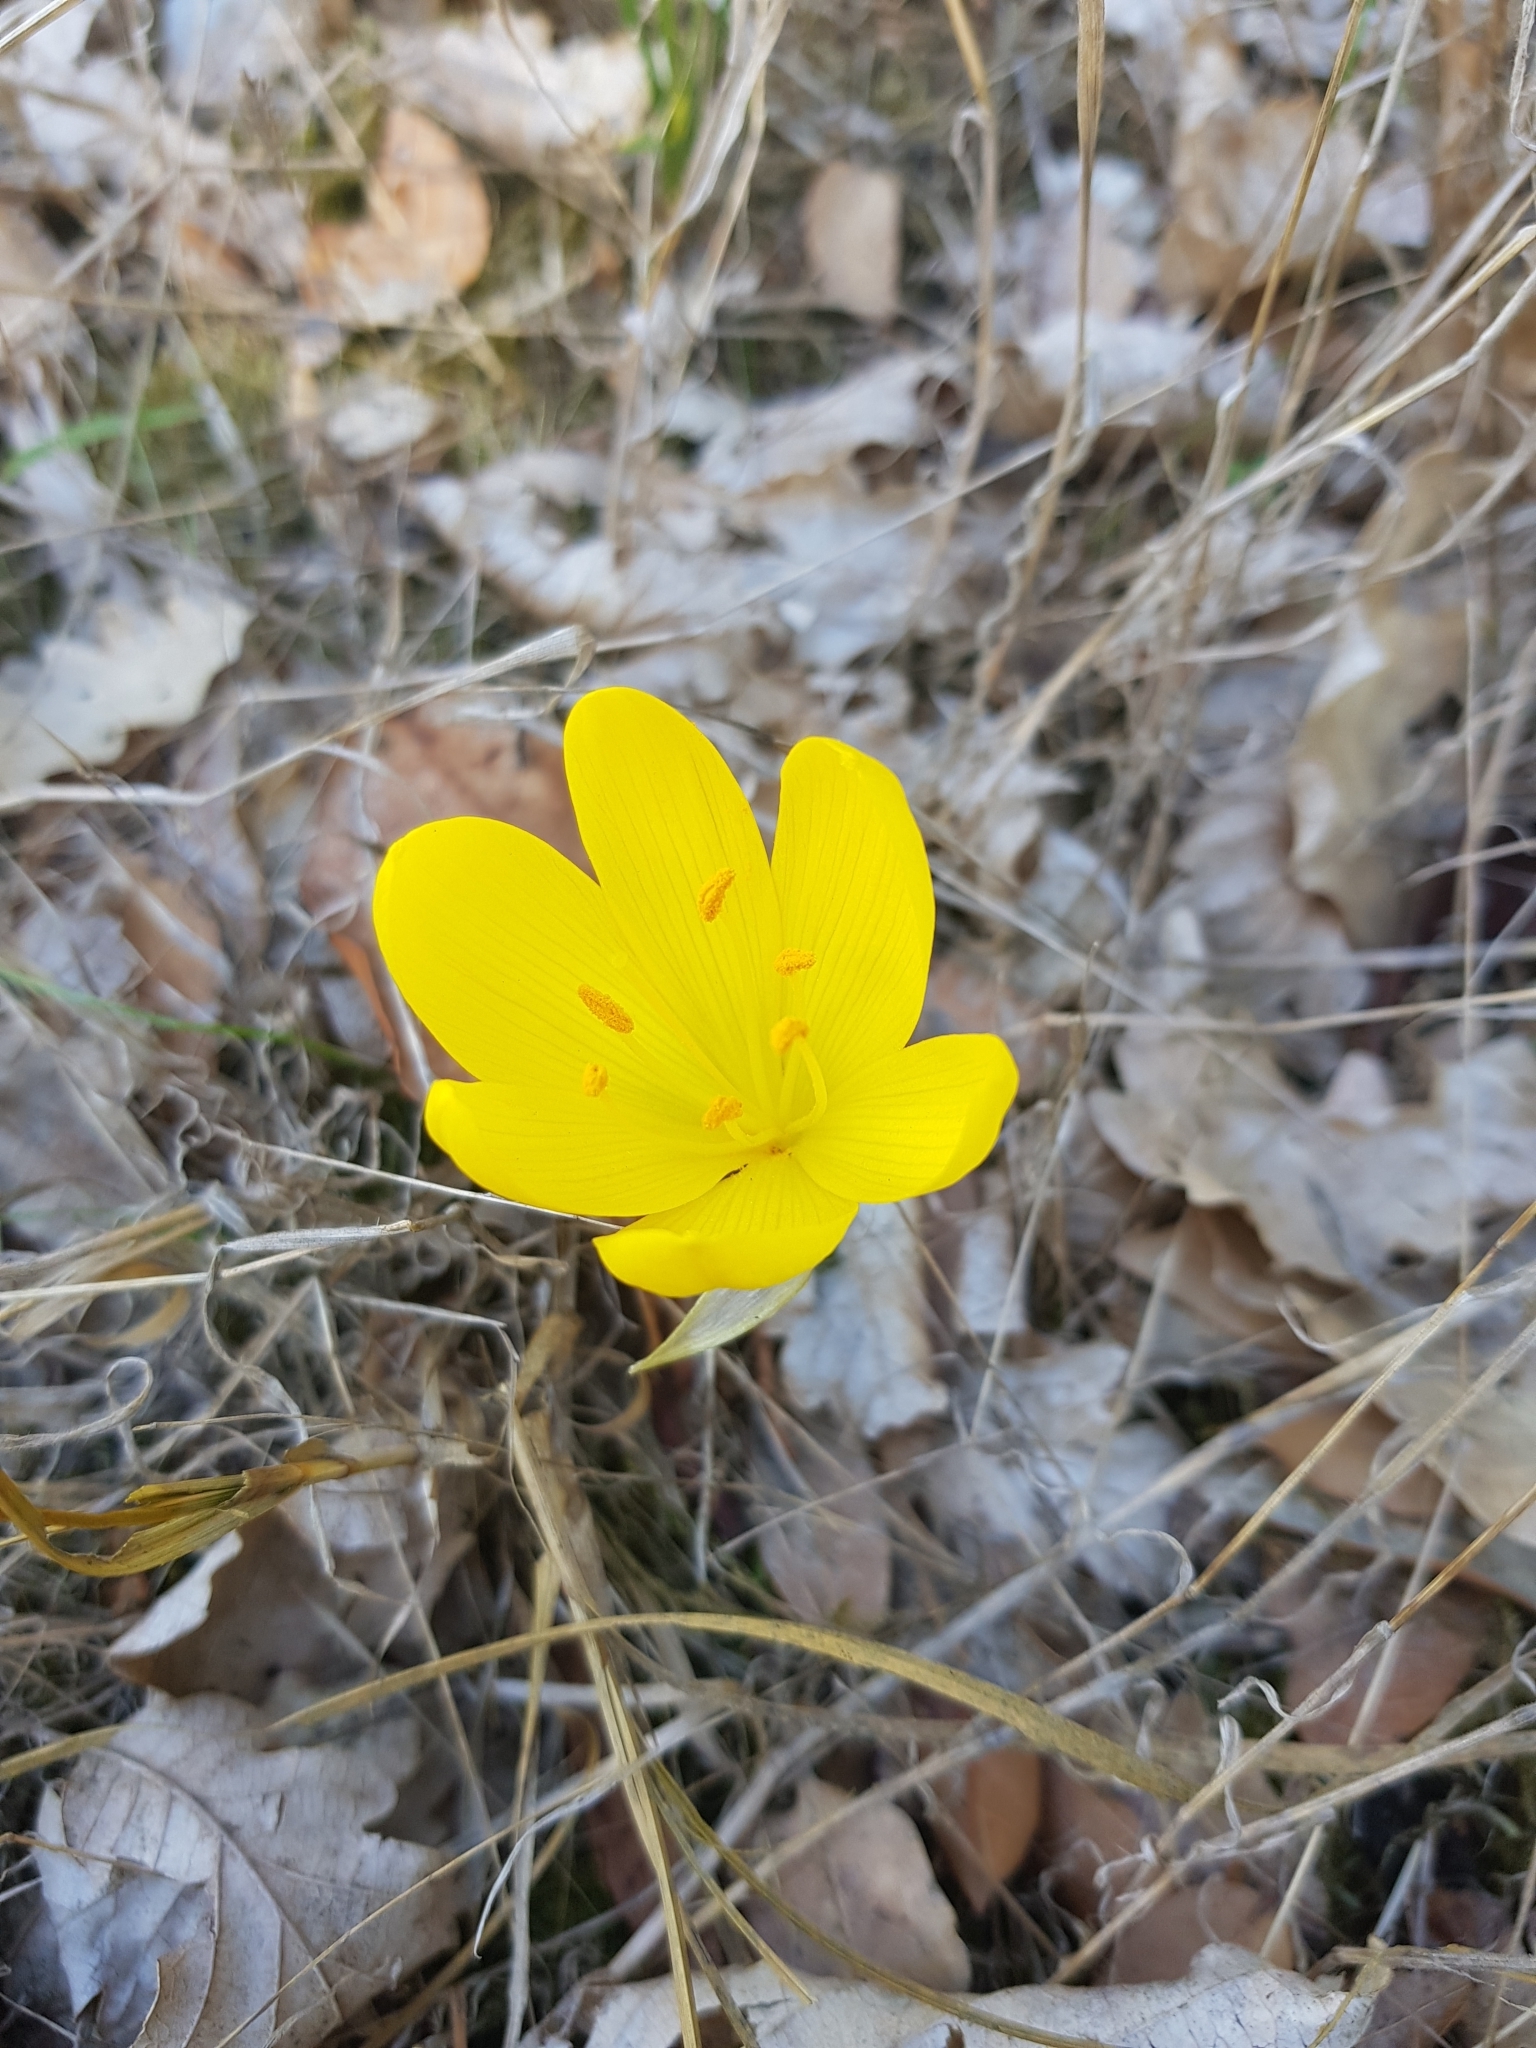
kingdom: Plantae
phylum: Tracheophyta
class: Liliopsida
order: Asparagales
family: Amaryllidaceae
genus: Sternbergia
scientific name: Sternbergia lutea
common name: Winter daffodil
